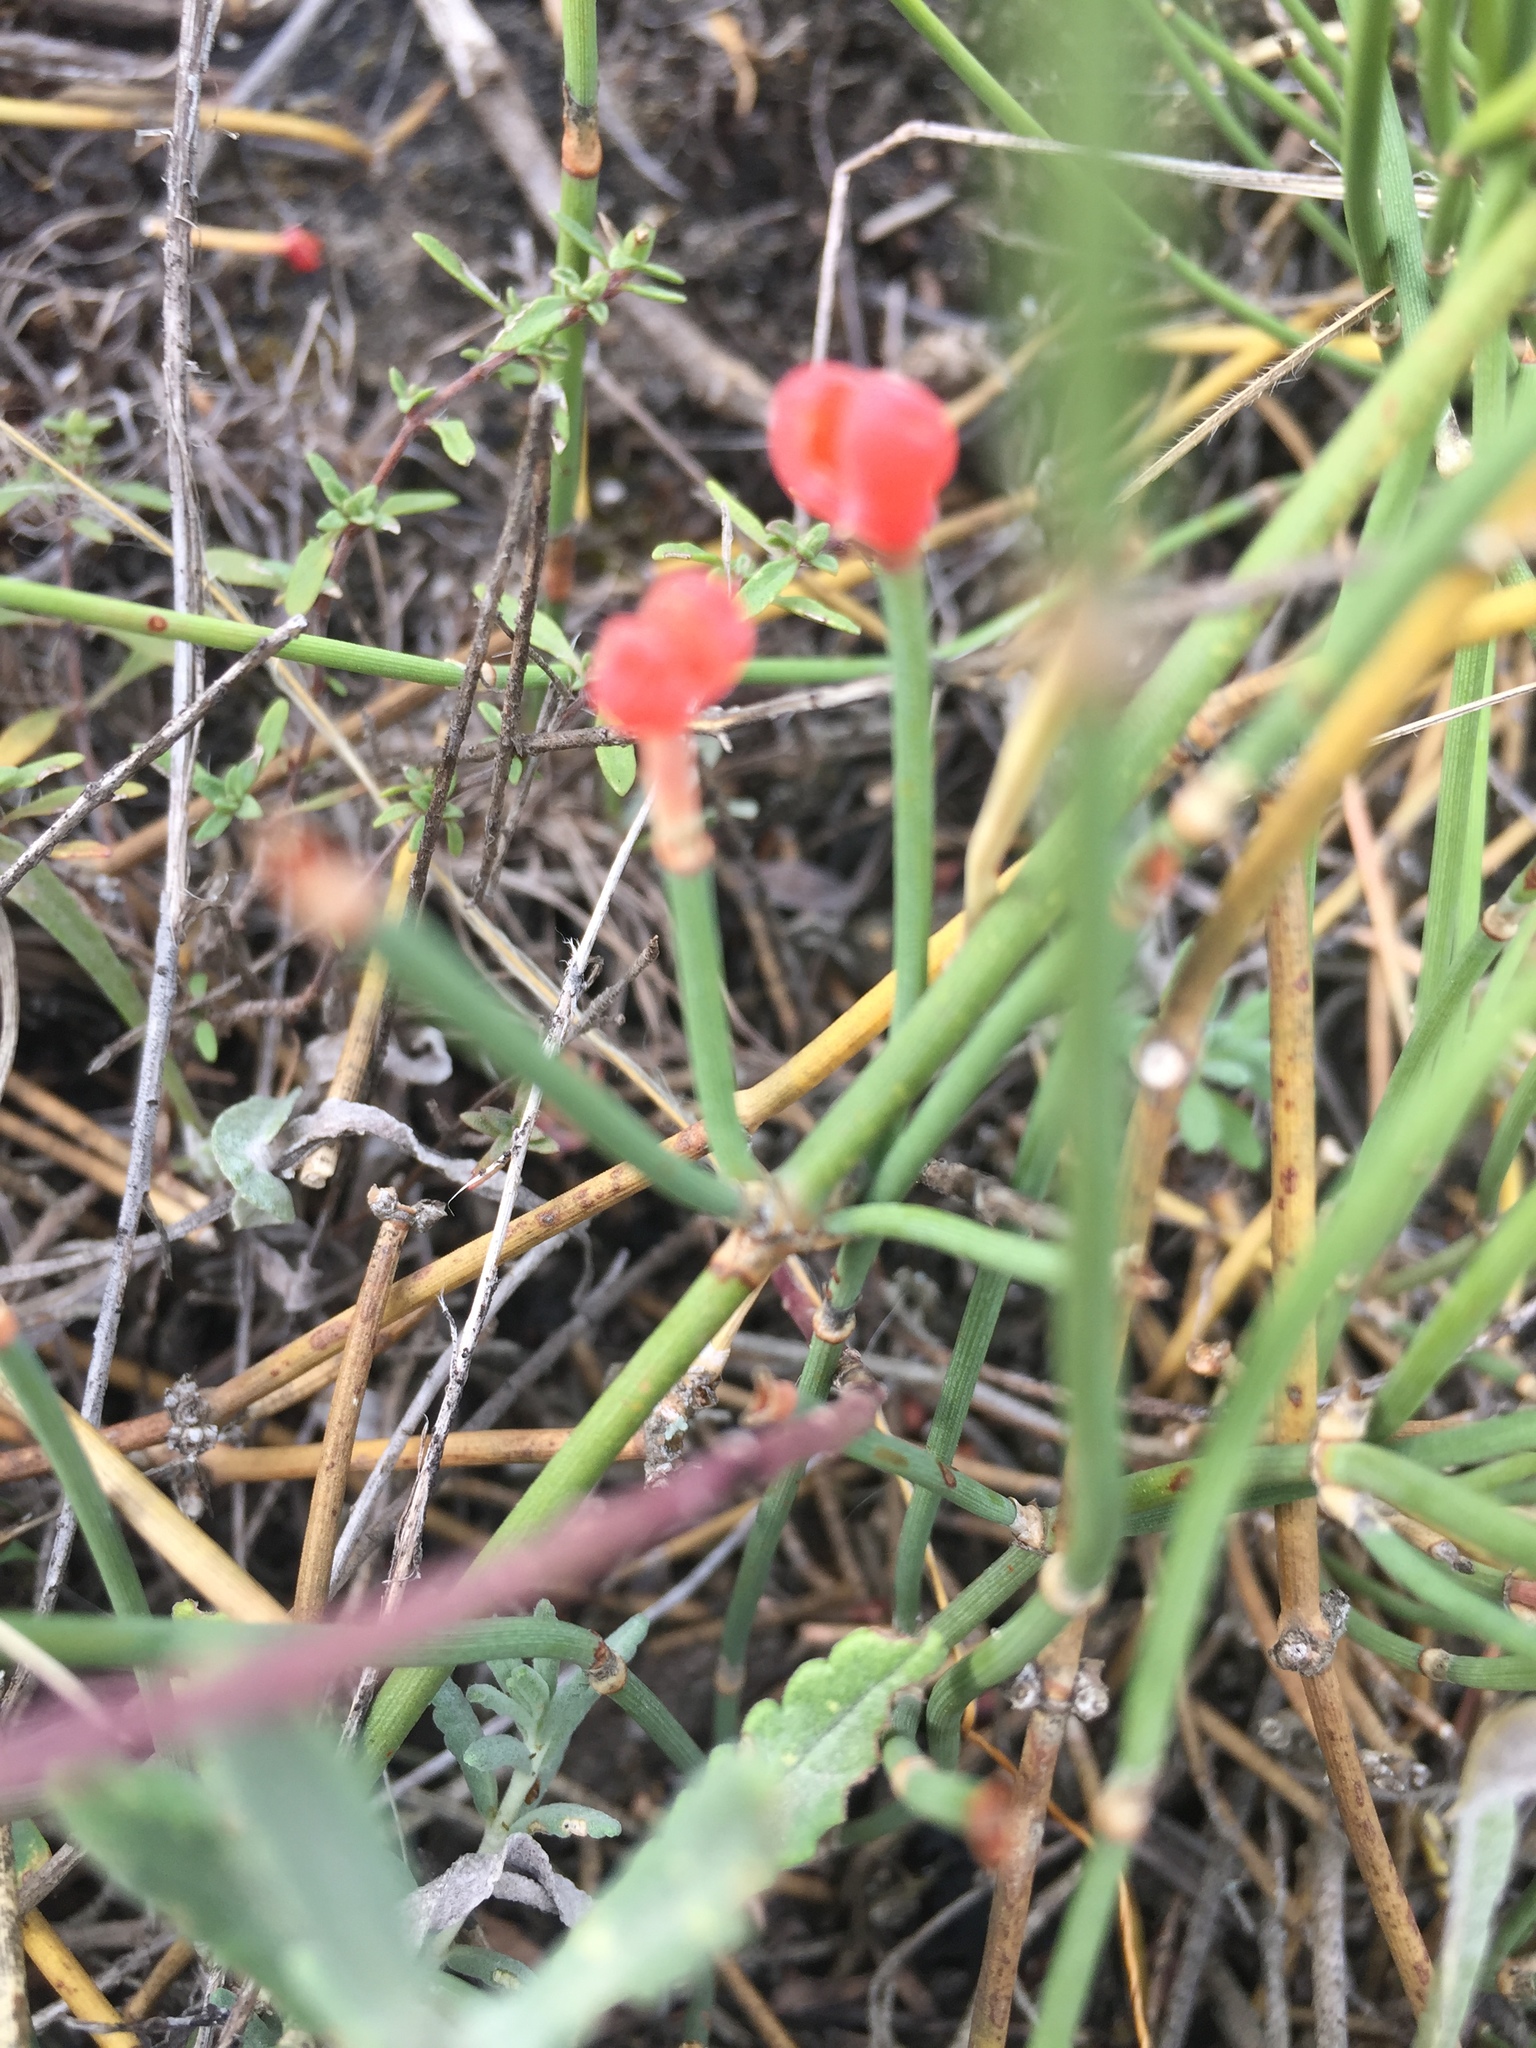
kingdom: Plantae
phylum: Tracheophyta
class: Gnetopsida
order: Ephedrales
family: Ephedraceae
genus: Ephedra
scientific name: Ephedra distachya
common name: Sea grape
